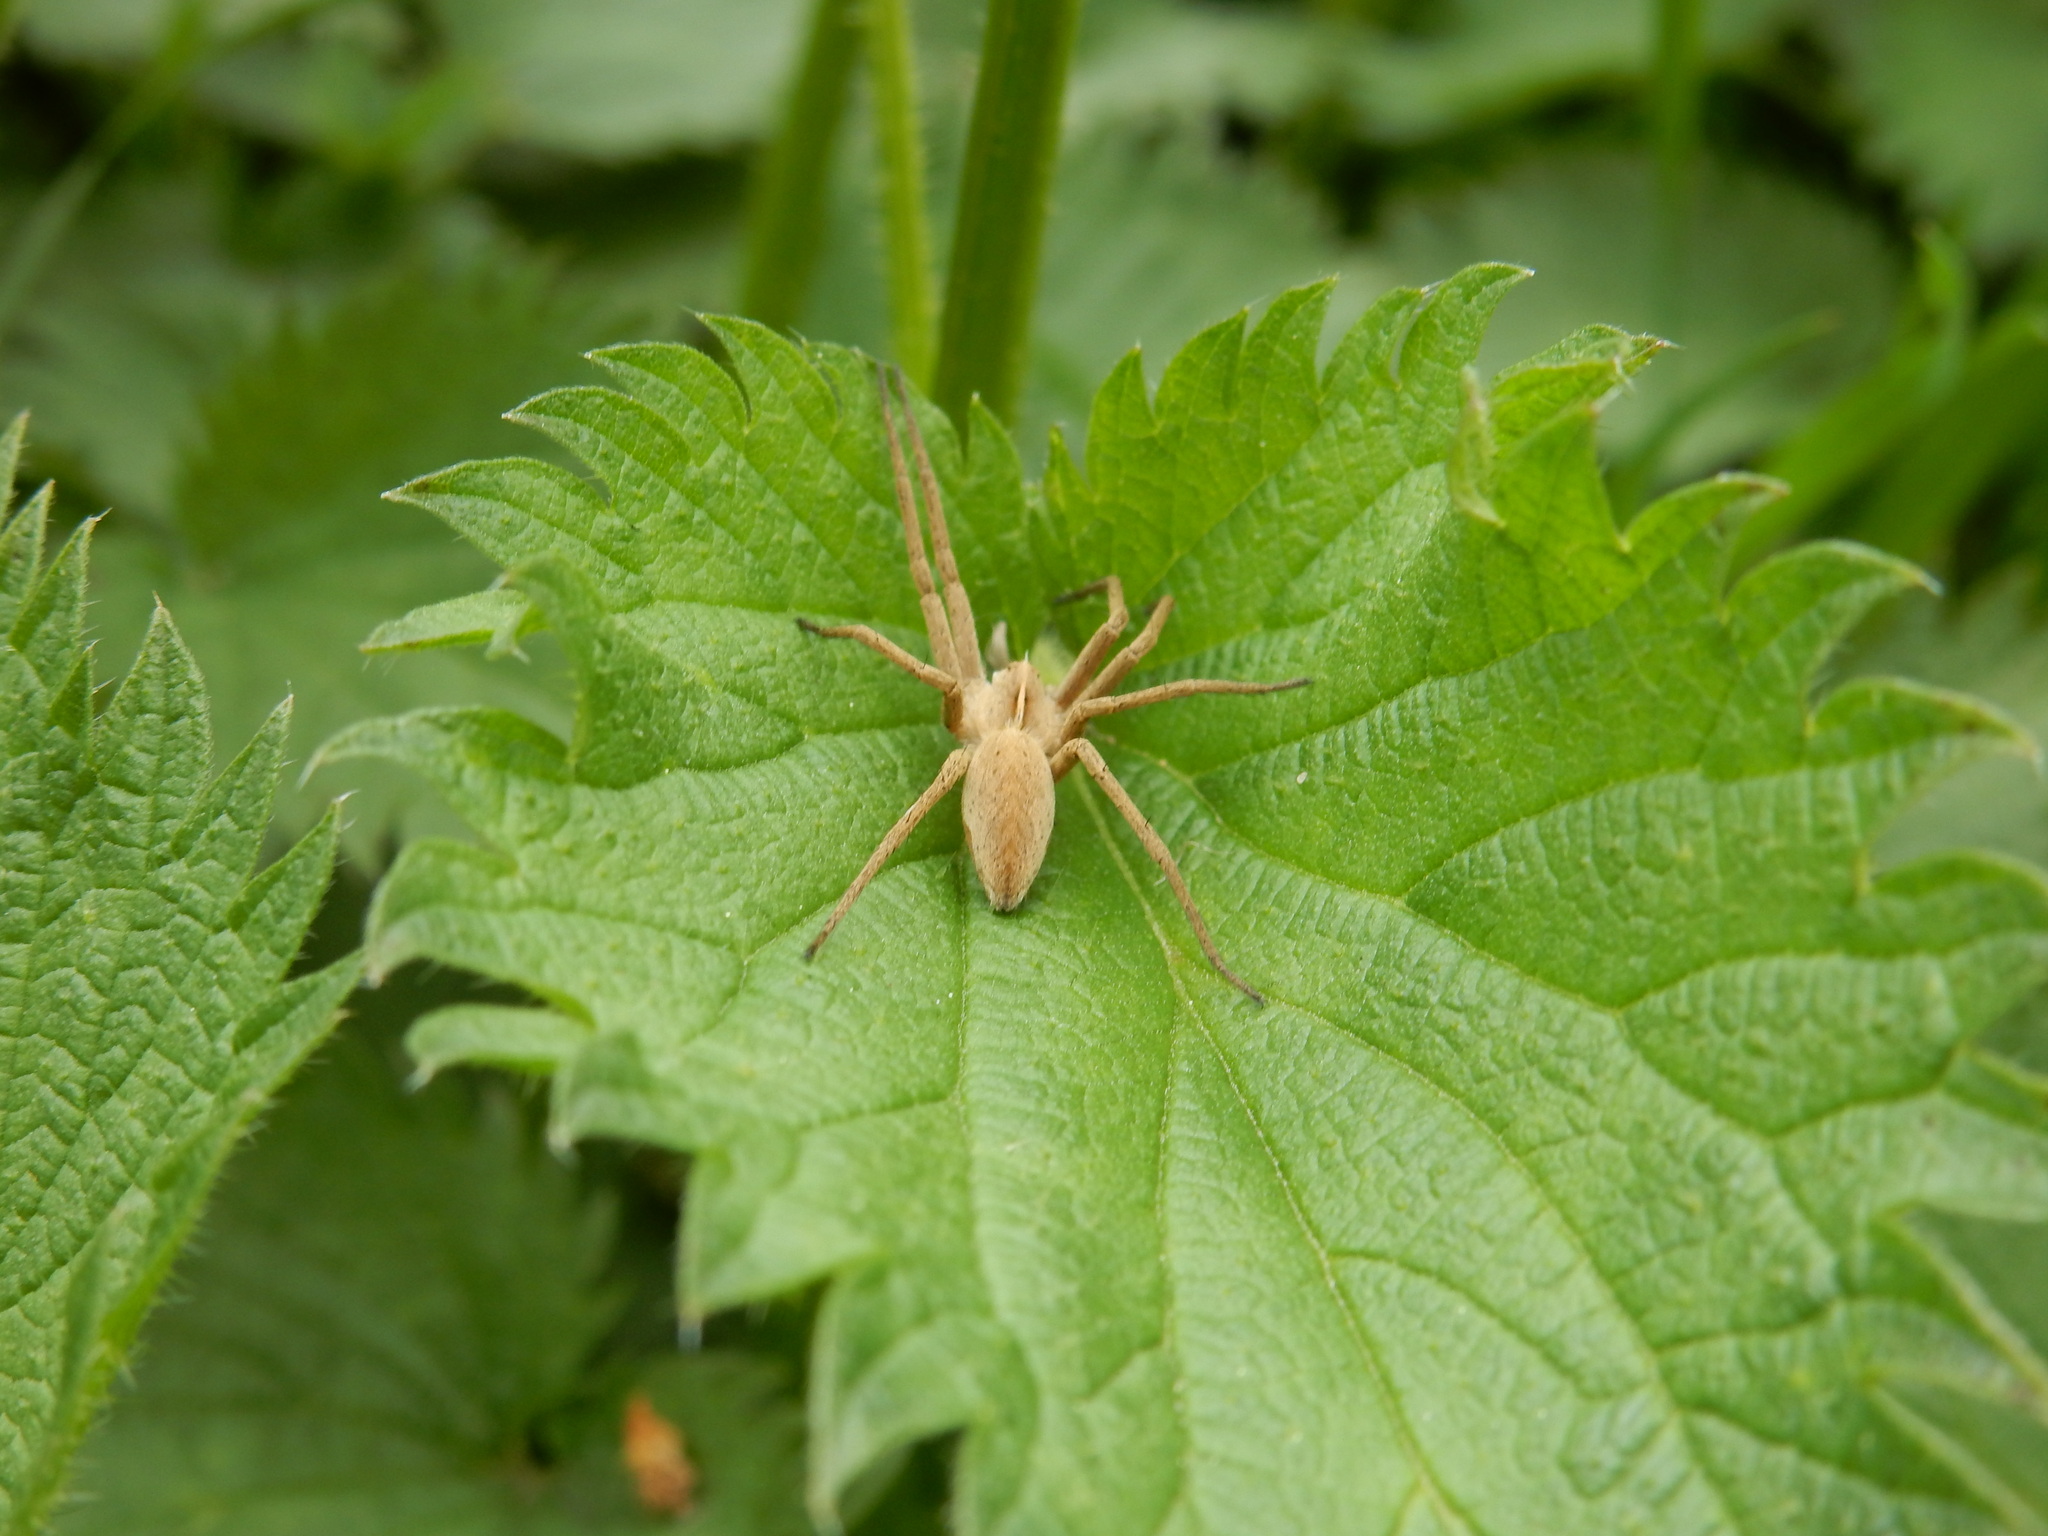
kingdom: Animalia
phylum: Arthropoda
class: Arachnida
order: Araneae
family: Pisauridae
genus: Pisaura
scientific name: Pisaura mirabilis
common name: Tent spider
